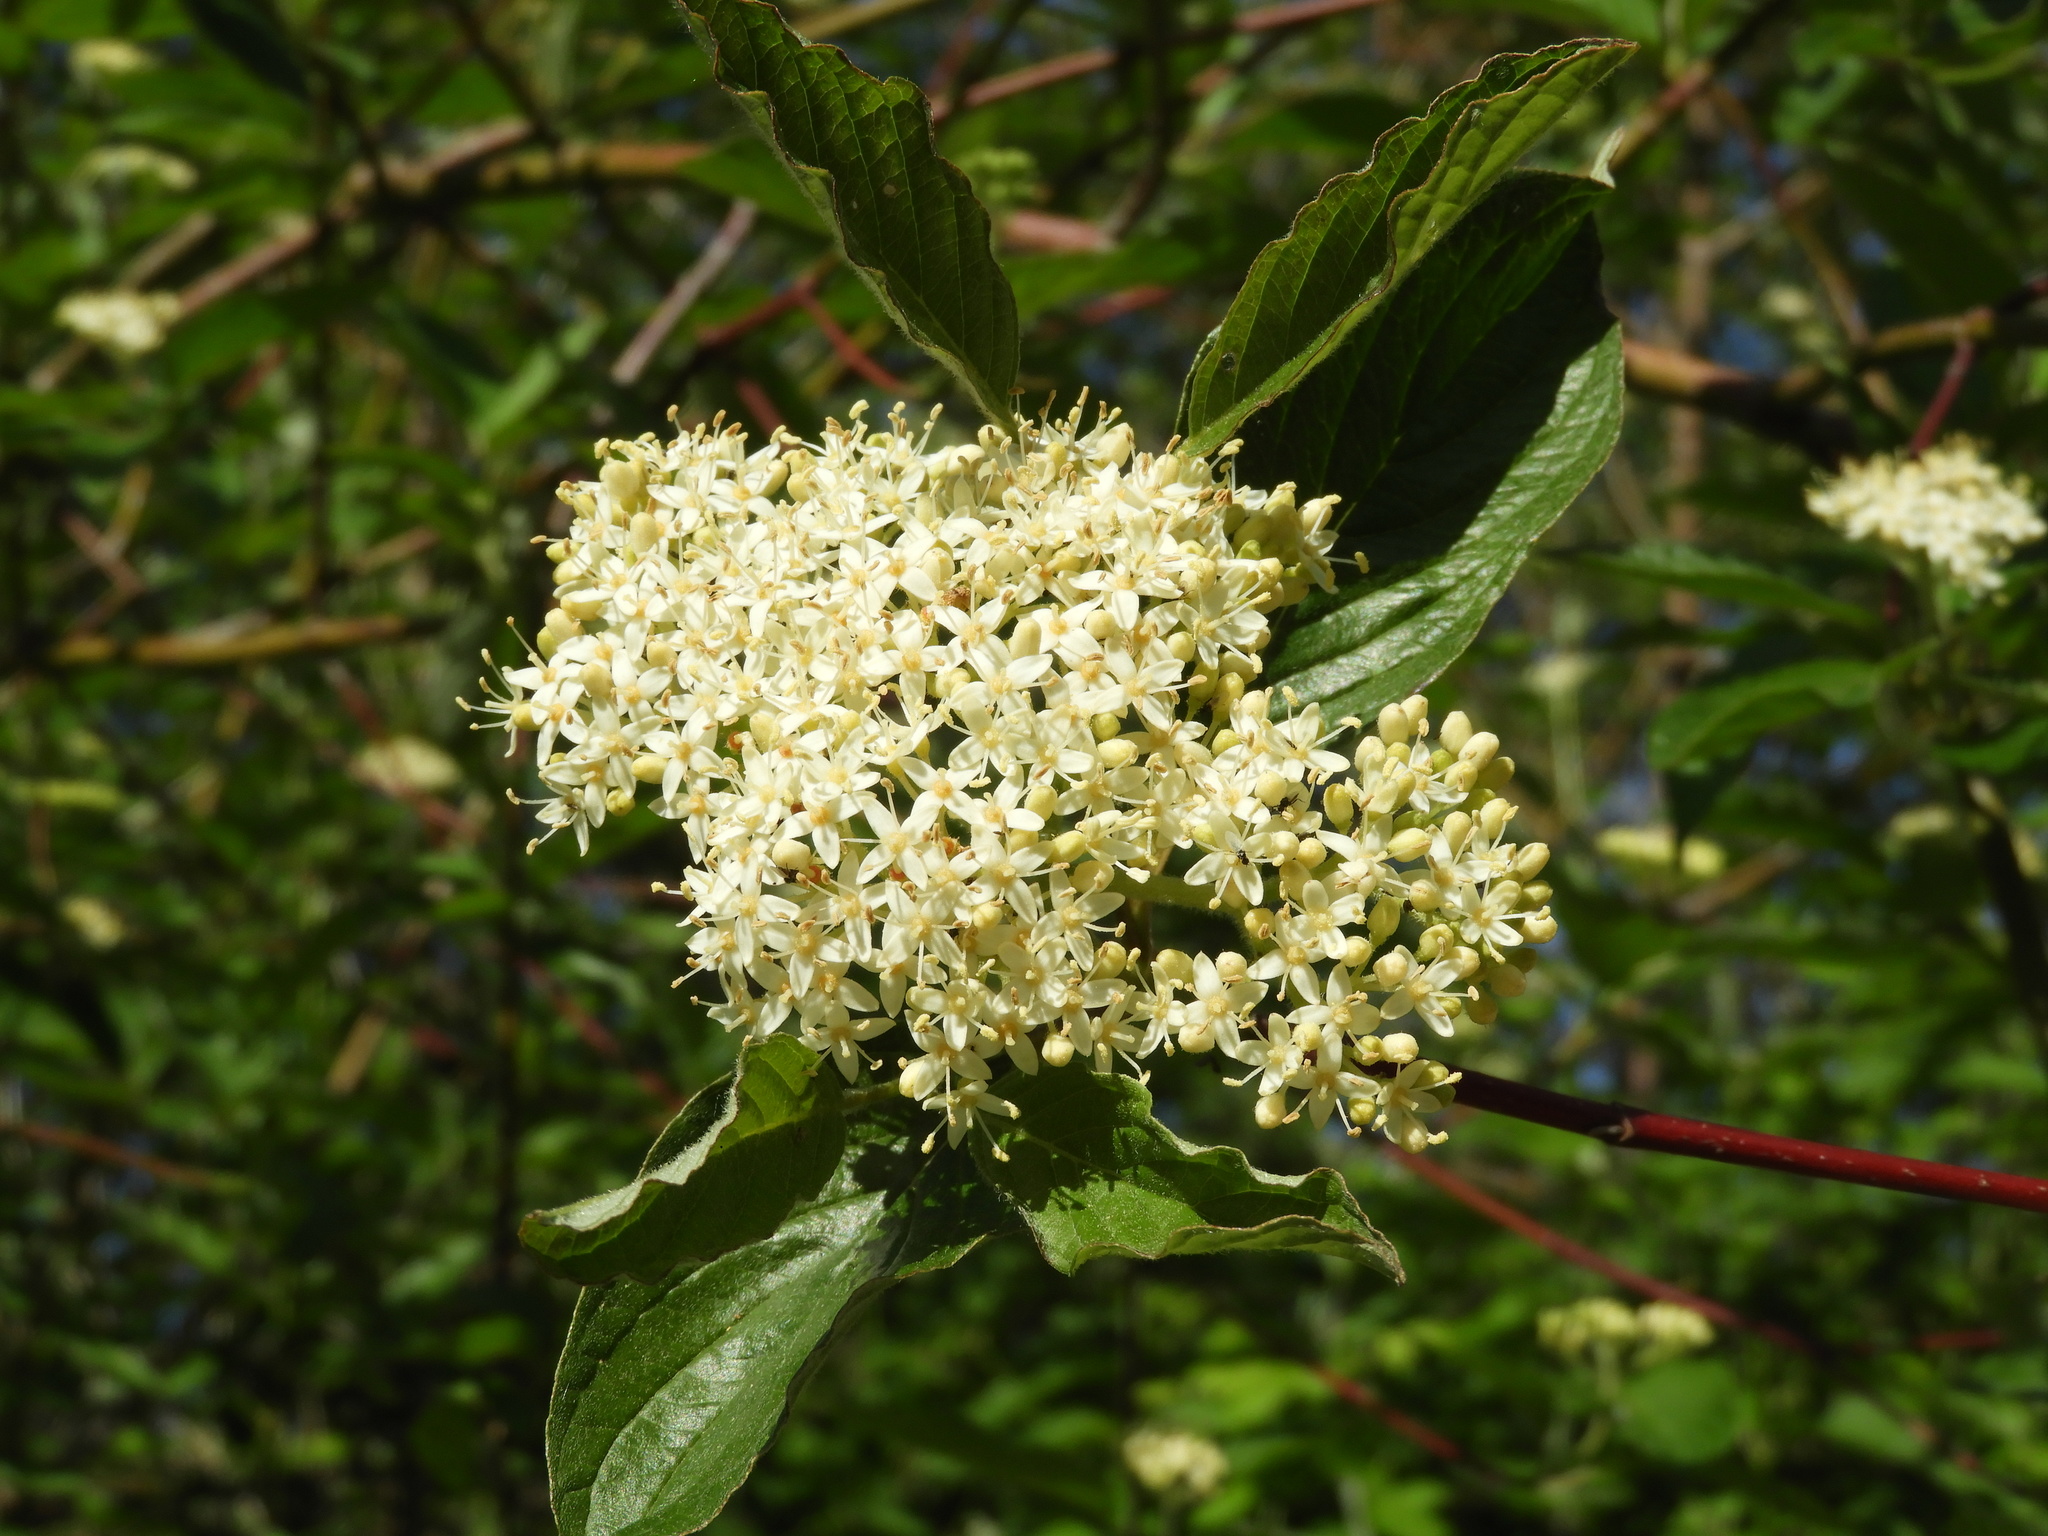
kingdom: Plantae
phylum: Tracheophyta
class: Magnoliopsida
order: Cornales
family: Cornaceae
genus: Cornus
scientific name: Cornus sericea
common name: Red-osier dogwood
